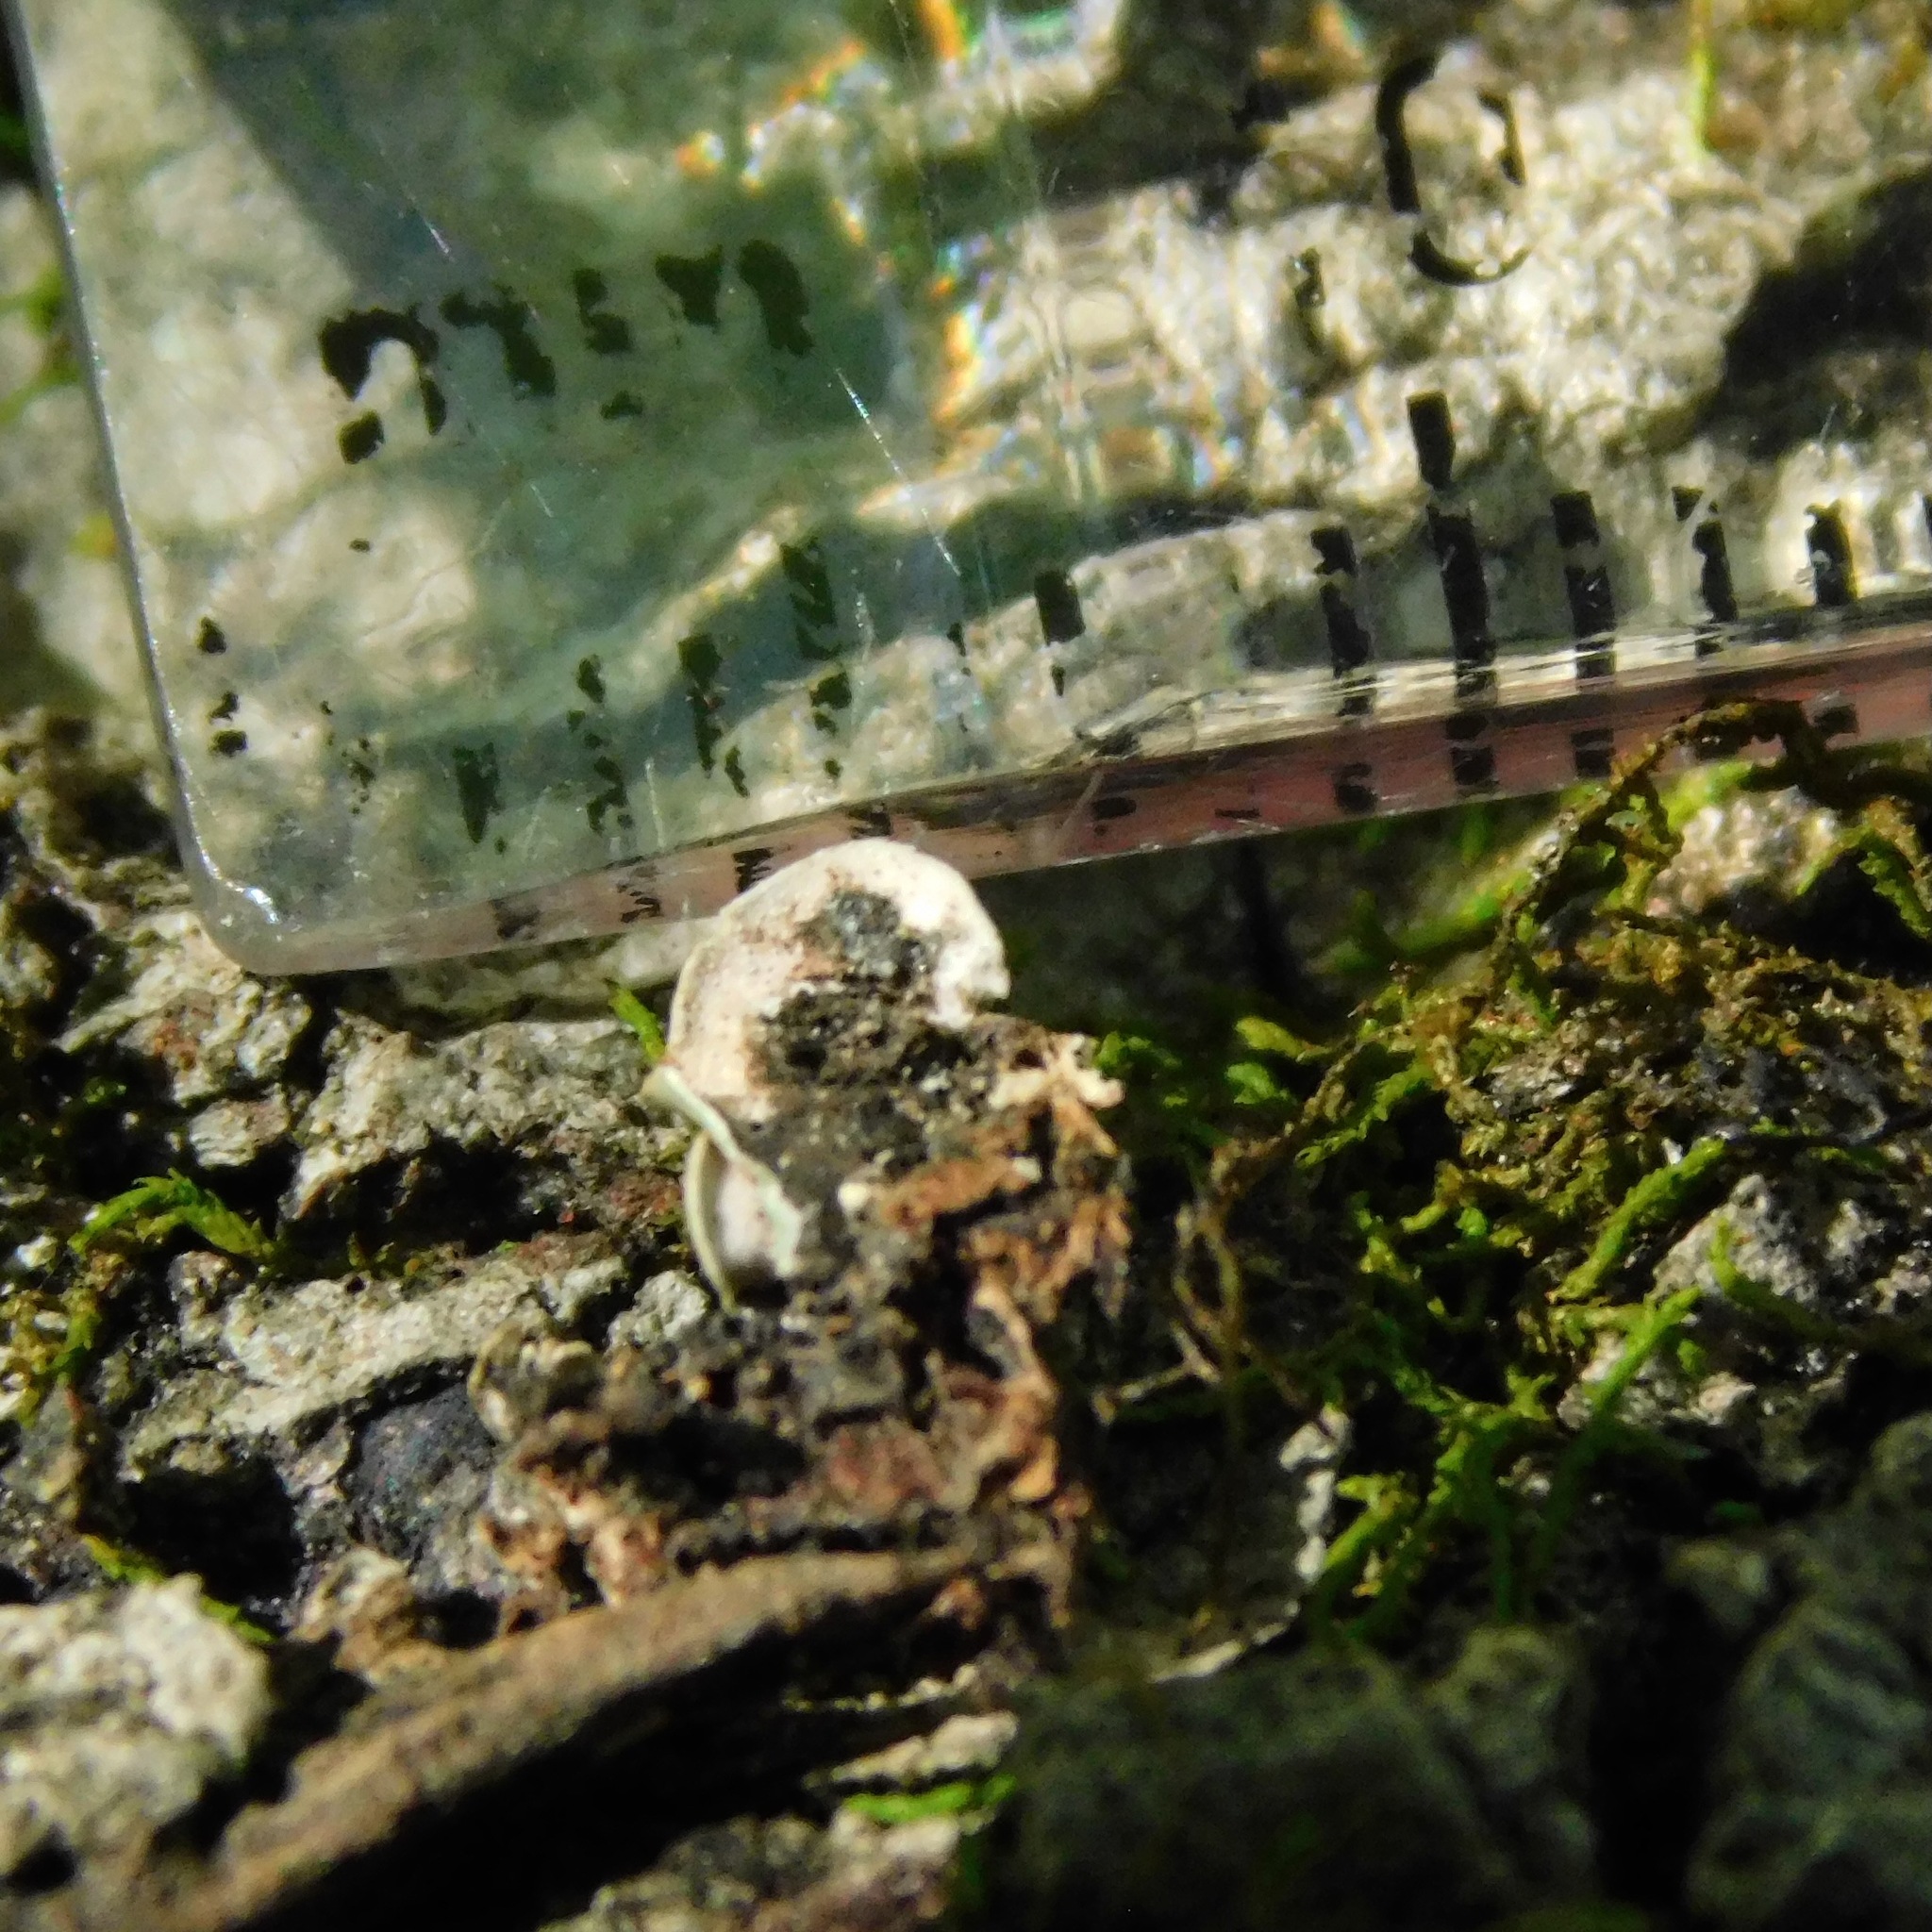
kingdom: Fungi
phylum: Ascomycota
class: Eurotiomycetes
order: Verrucariales
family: Verrucariaceae
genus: Placidium
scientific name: Placidium arboreum
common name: Tree stipplescale
